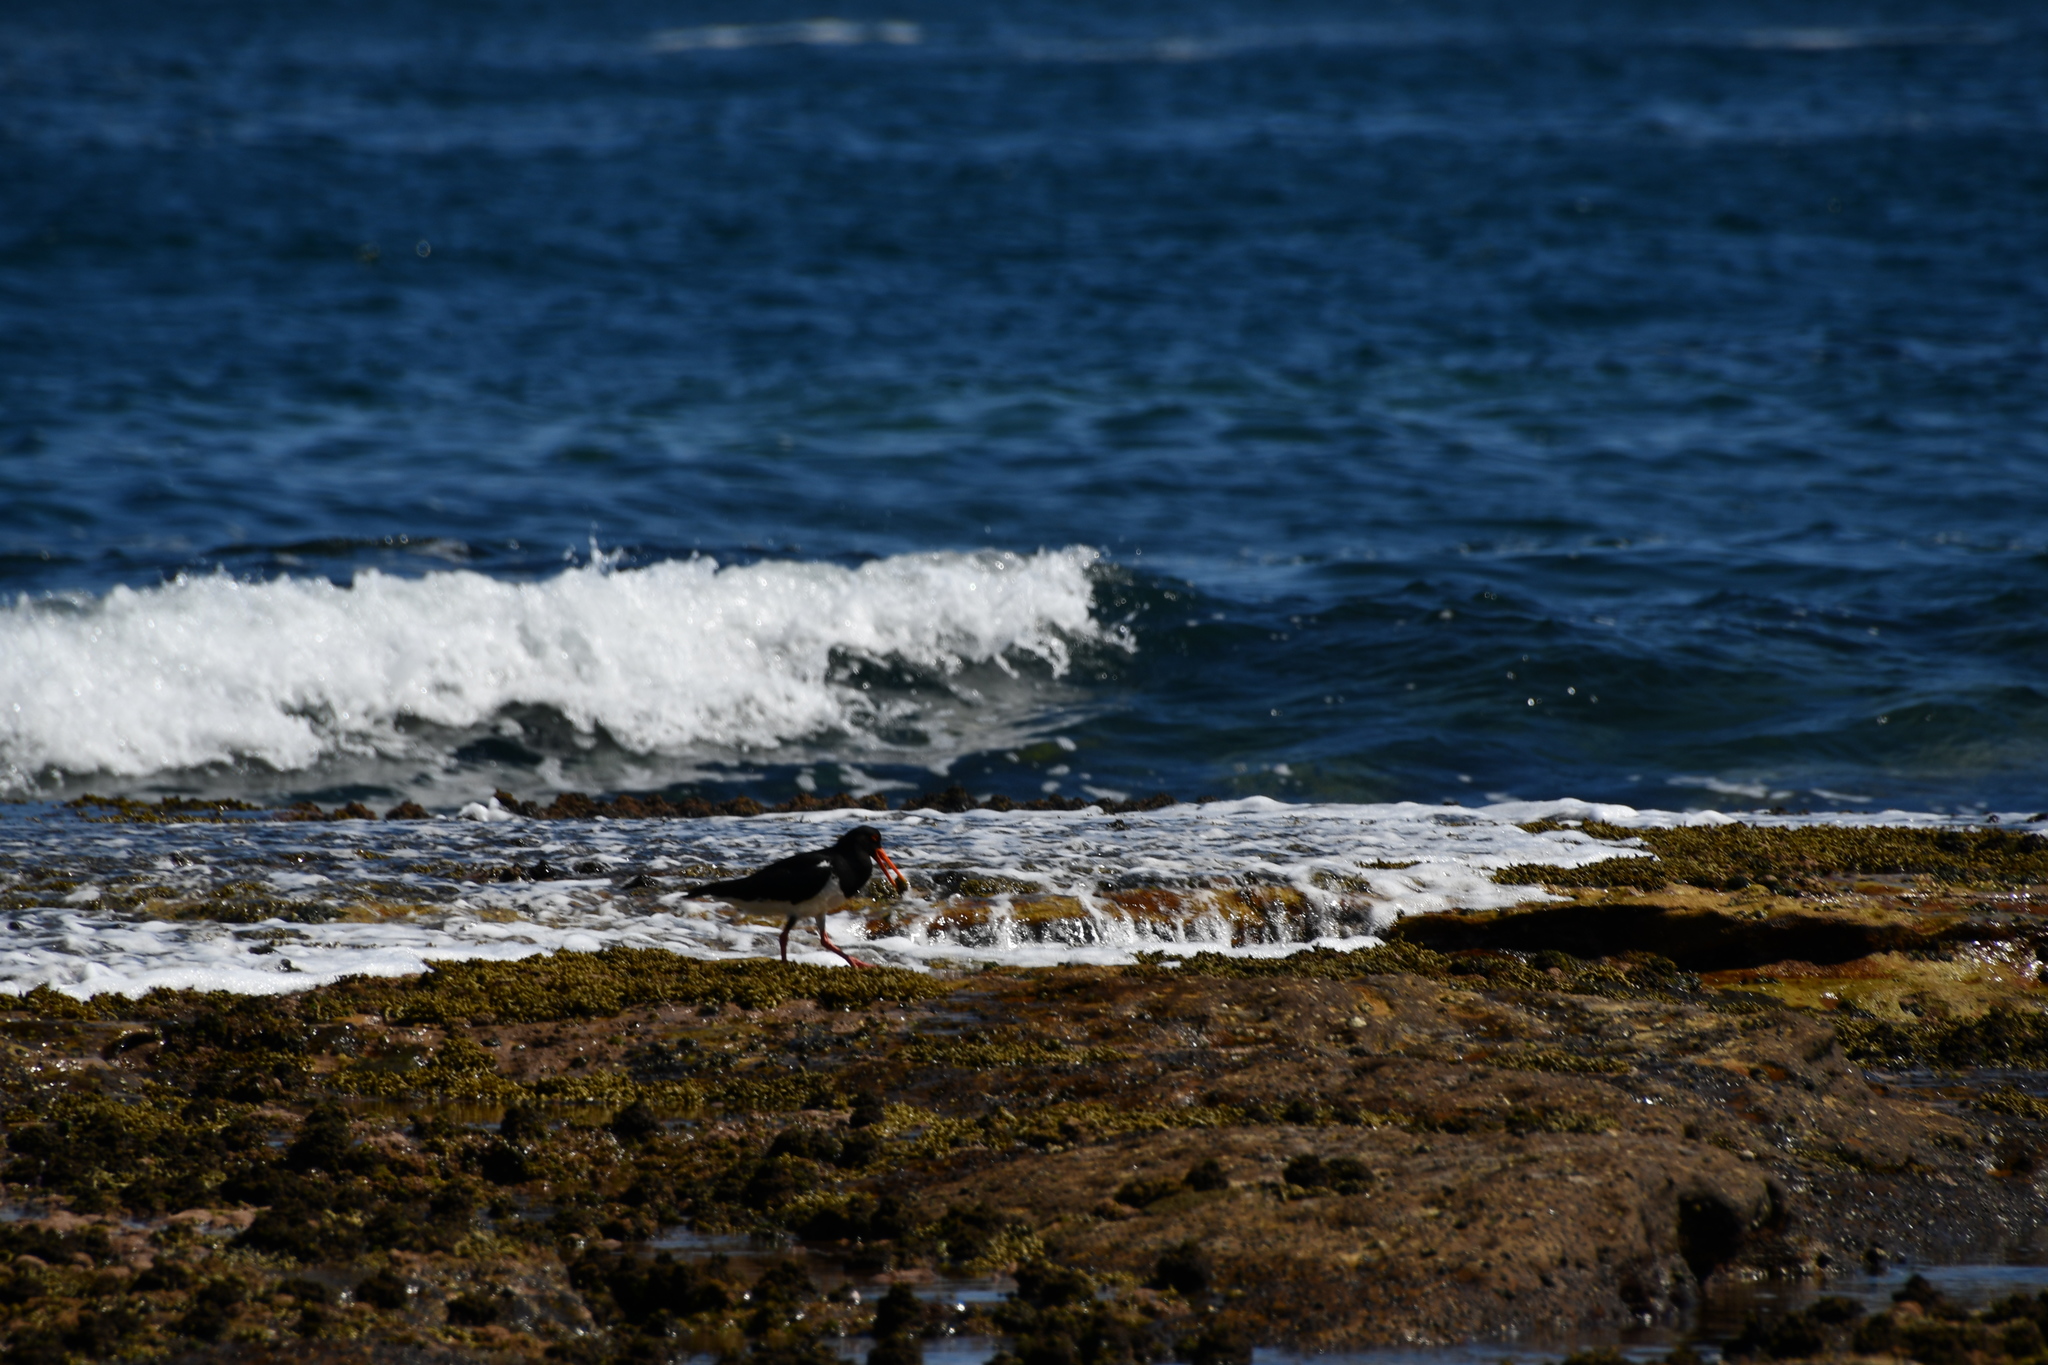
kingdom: Animalia
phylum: Chordata
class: Aves
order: Charadriiformes
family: Haematopodidae
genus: Haematopus
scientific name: Haematopus longirostris
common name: Pied oystercatcher
